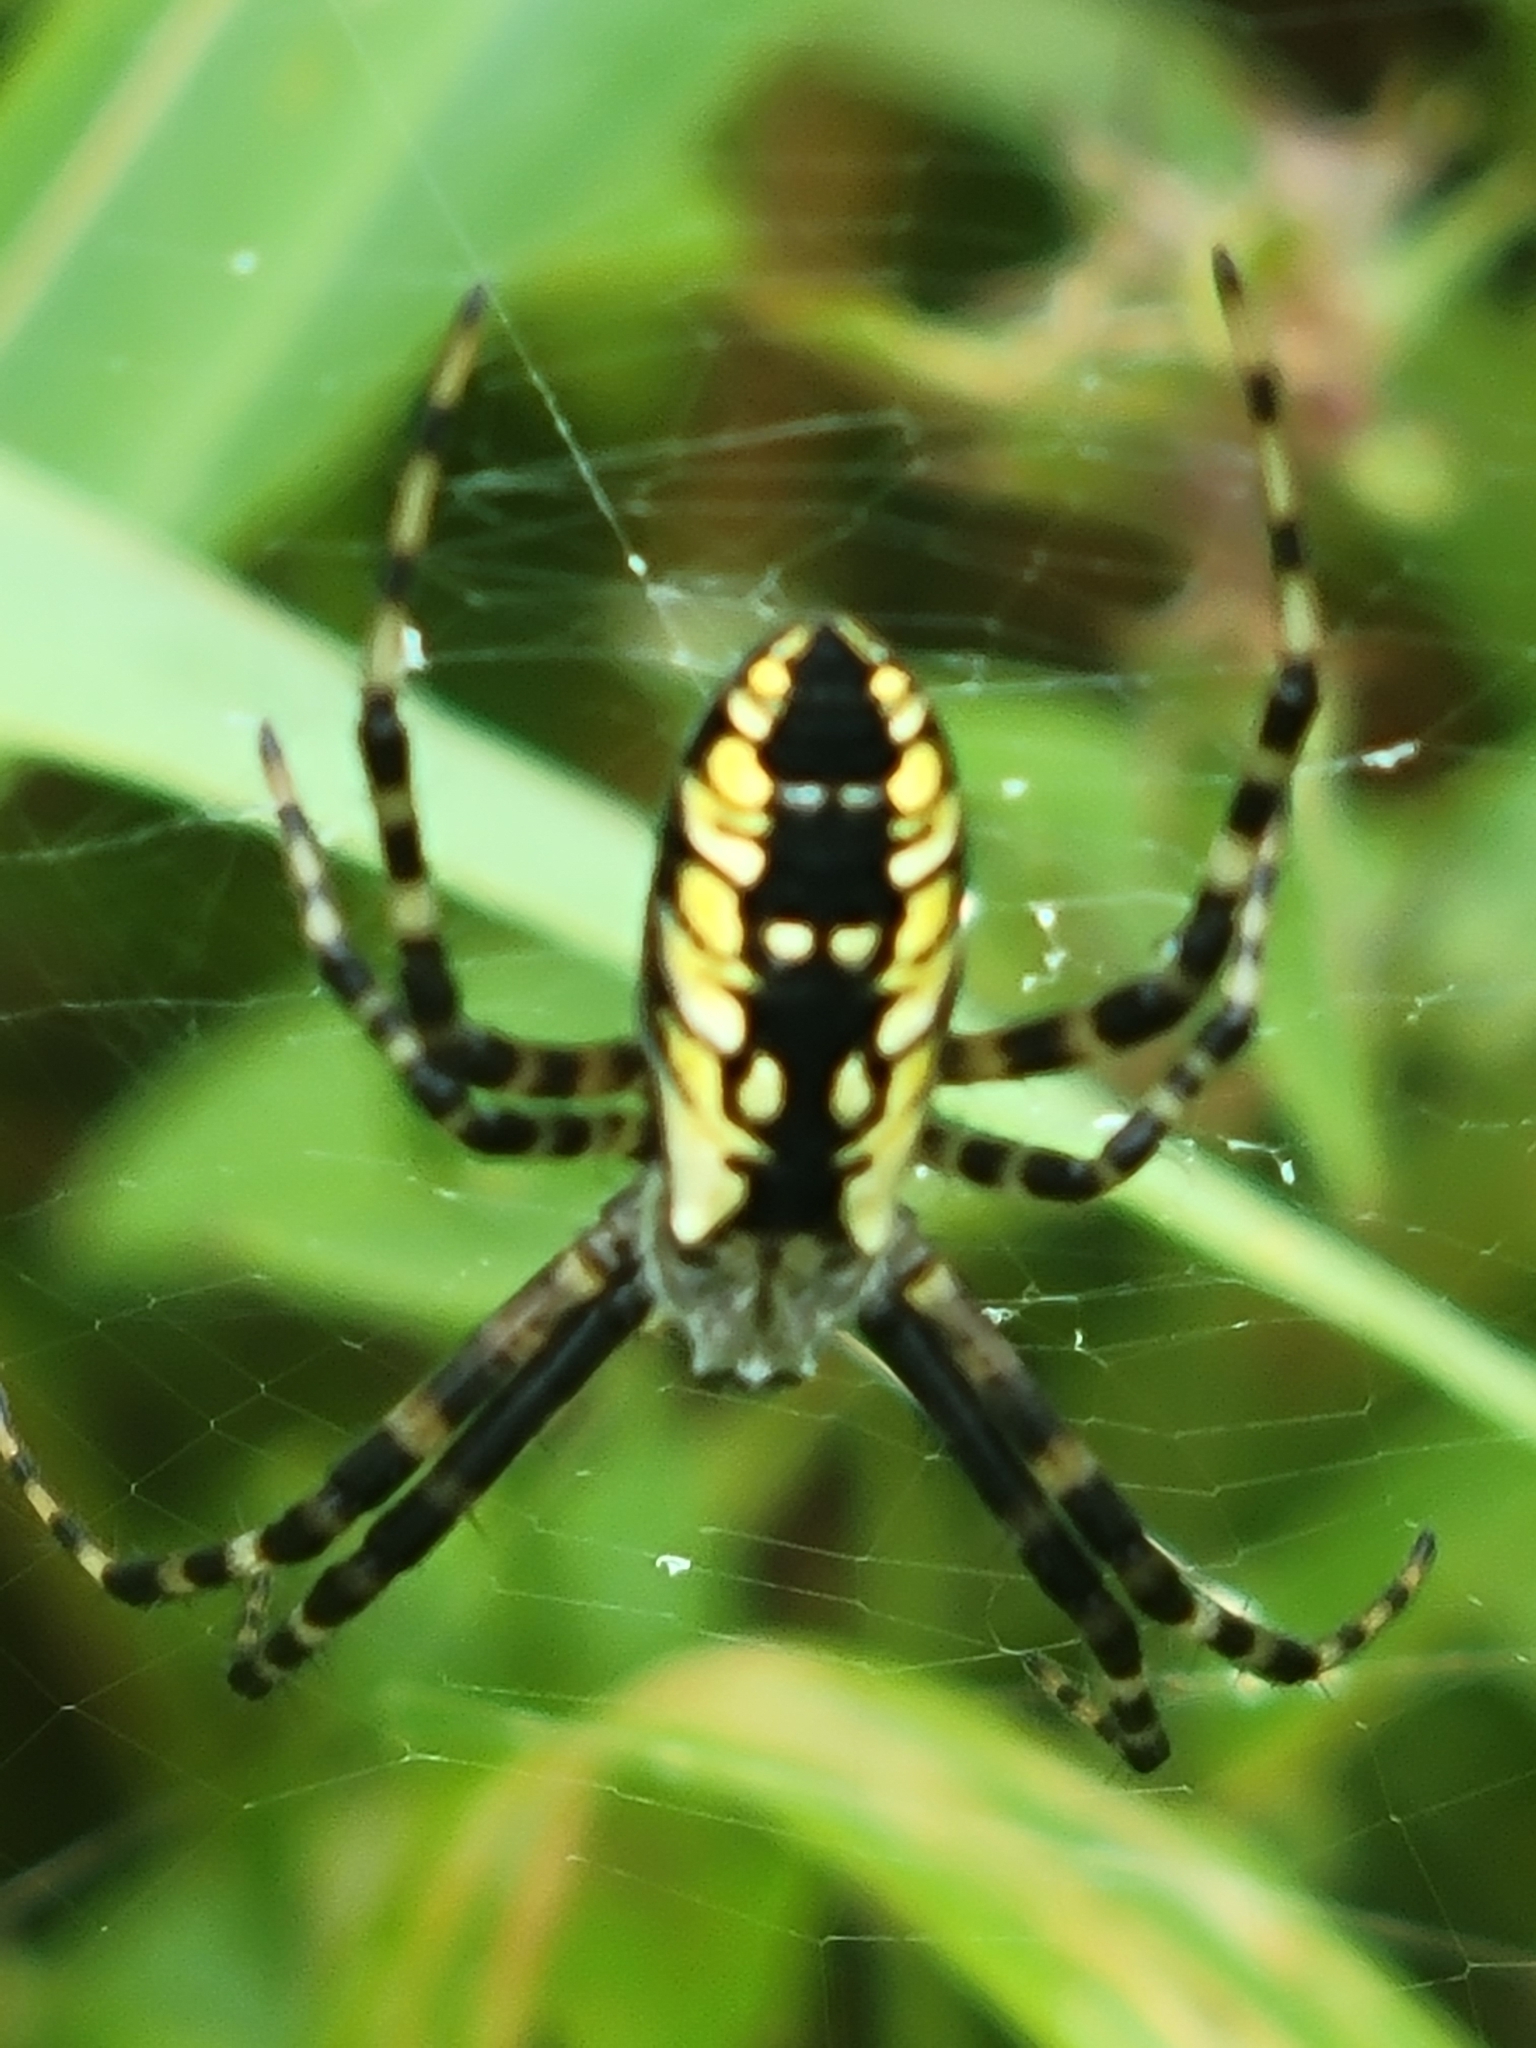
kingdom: Animalia
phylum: Arthropoda
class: Arachnida
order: Araneae
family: Araneidae
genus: Argiope
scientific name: Argiope aurantia
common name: Orb weavers
